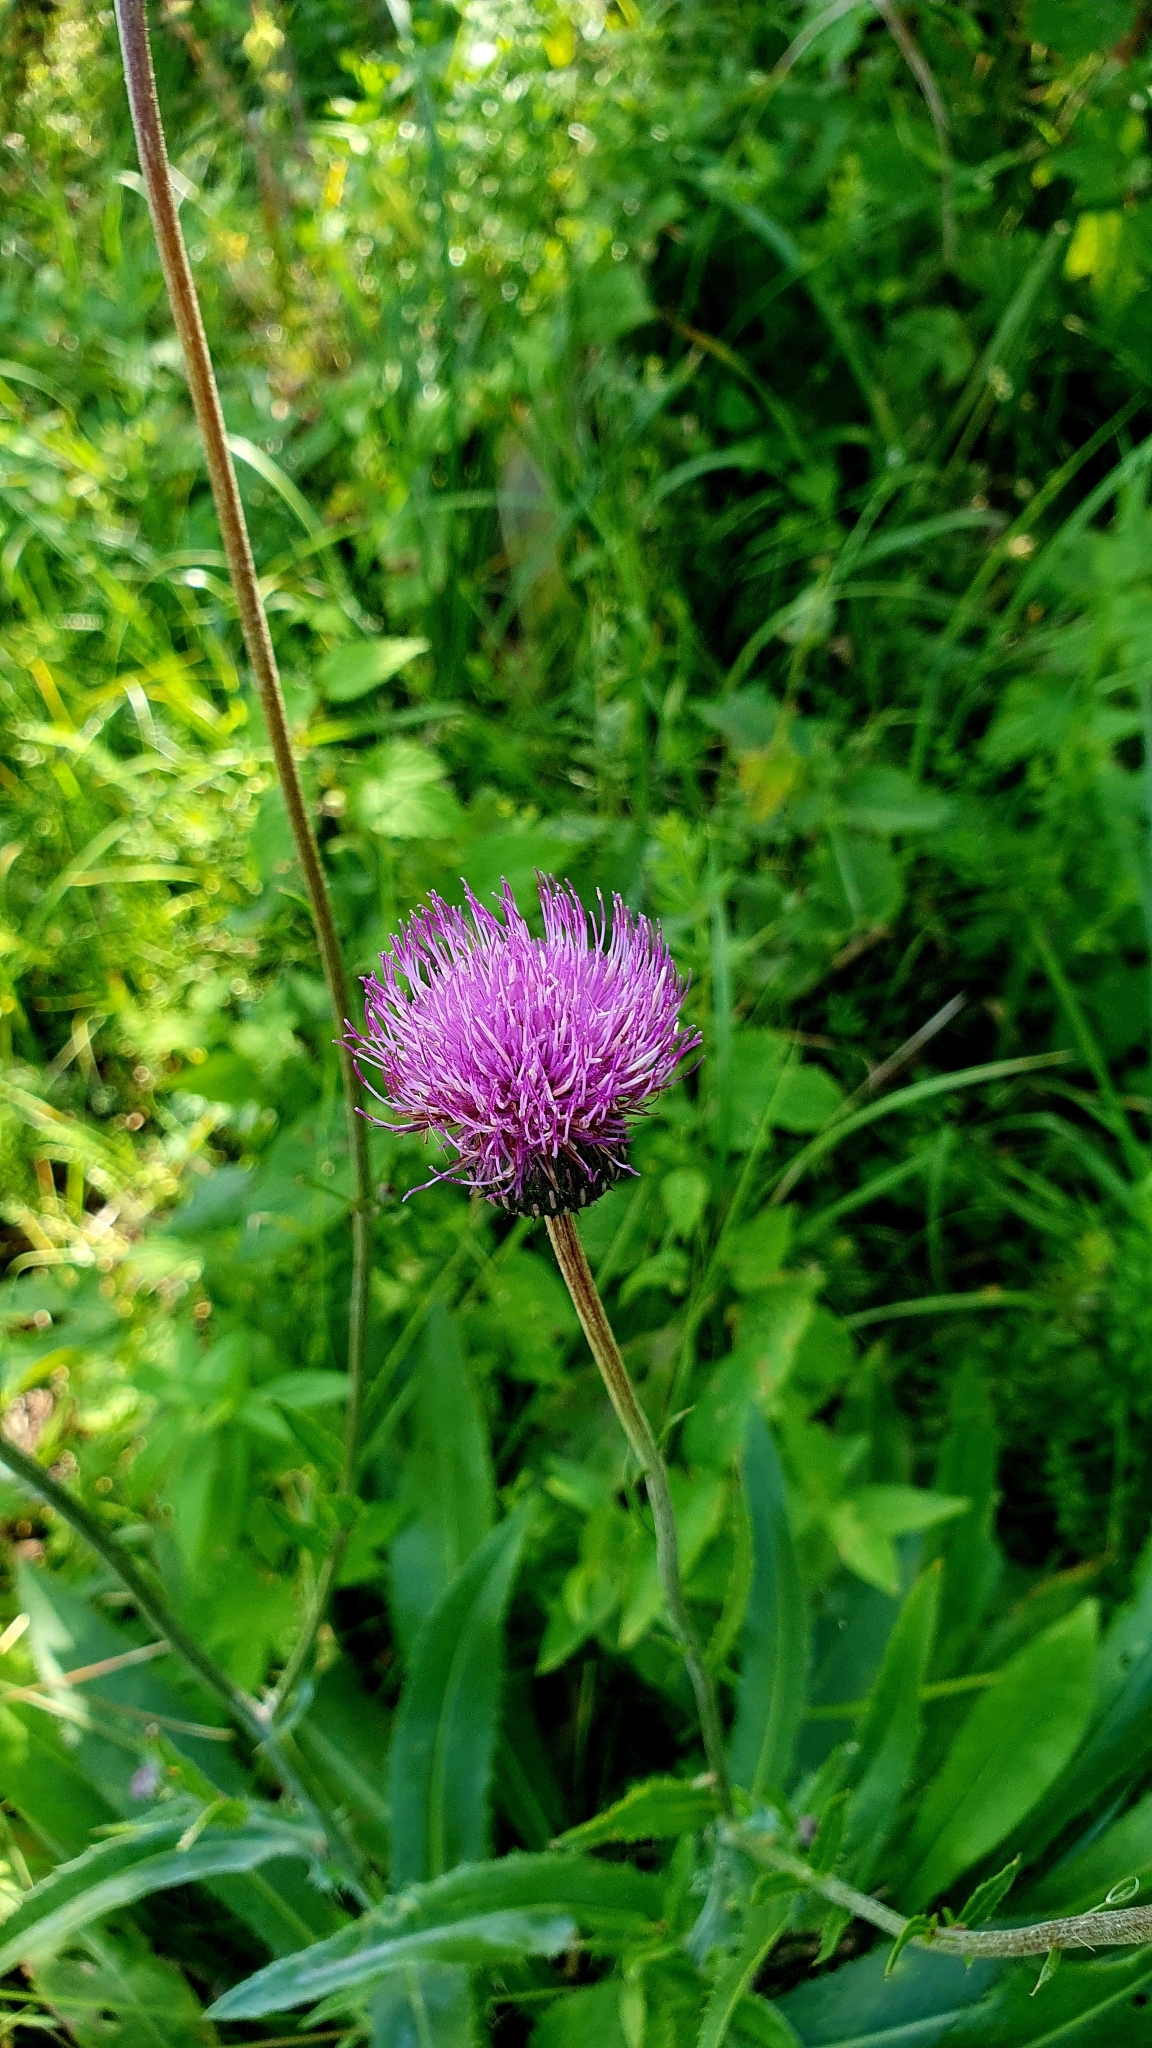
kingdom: Plantae
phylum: Tracheophyta
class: Magnoliopsida
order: Asterales
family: Asteraceae
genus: Cirsium
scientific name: Cirsium canum
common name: Queen anne's thistle
